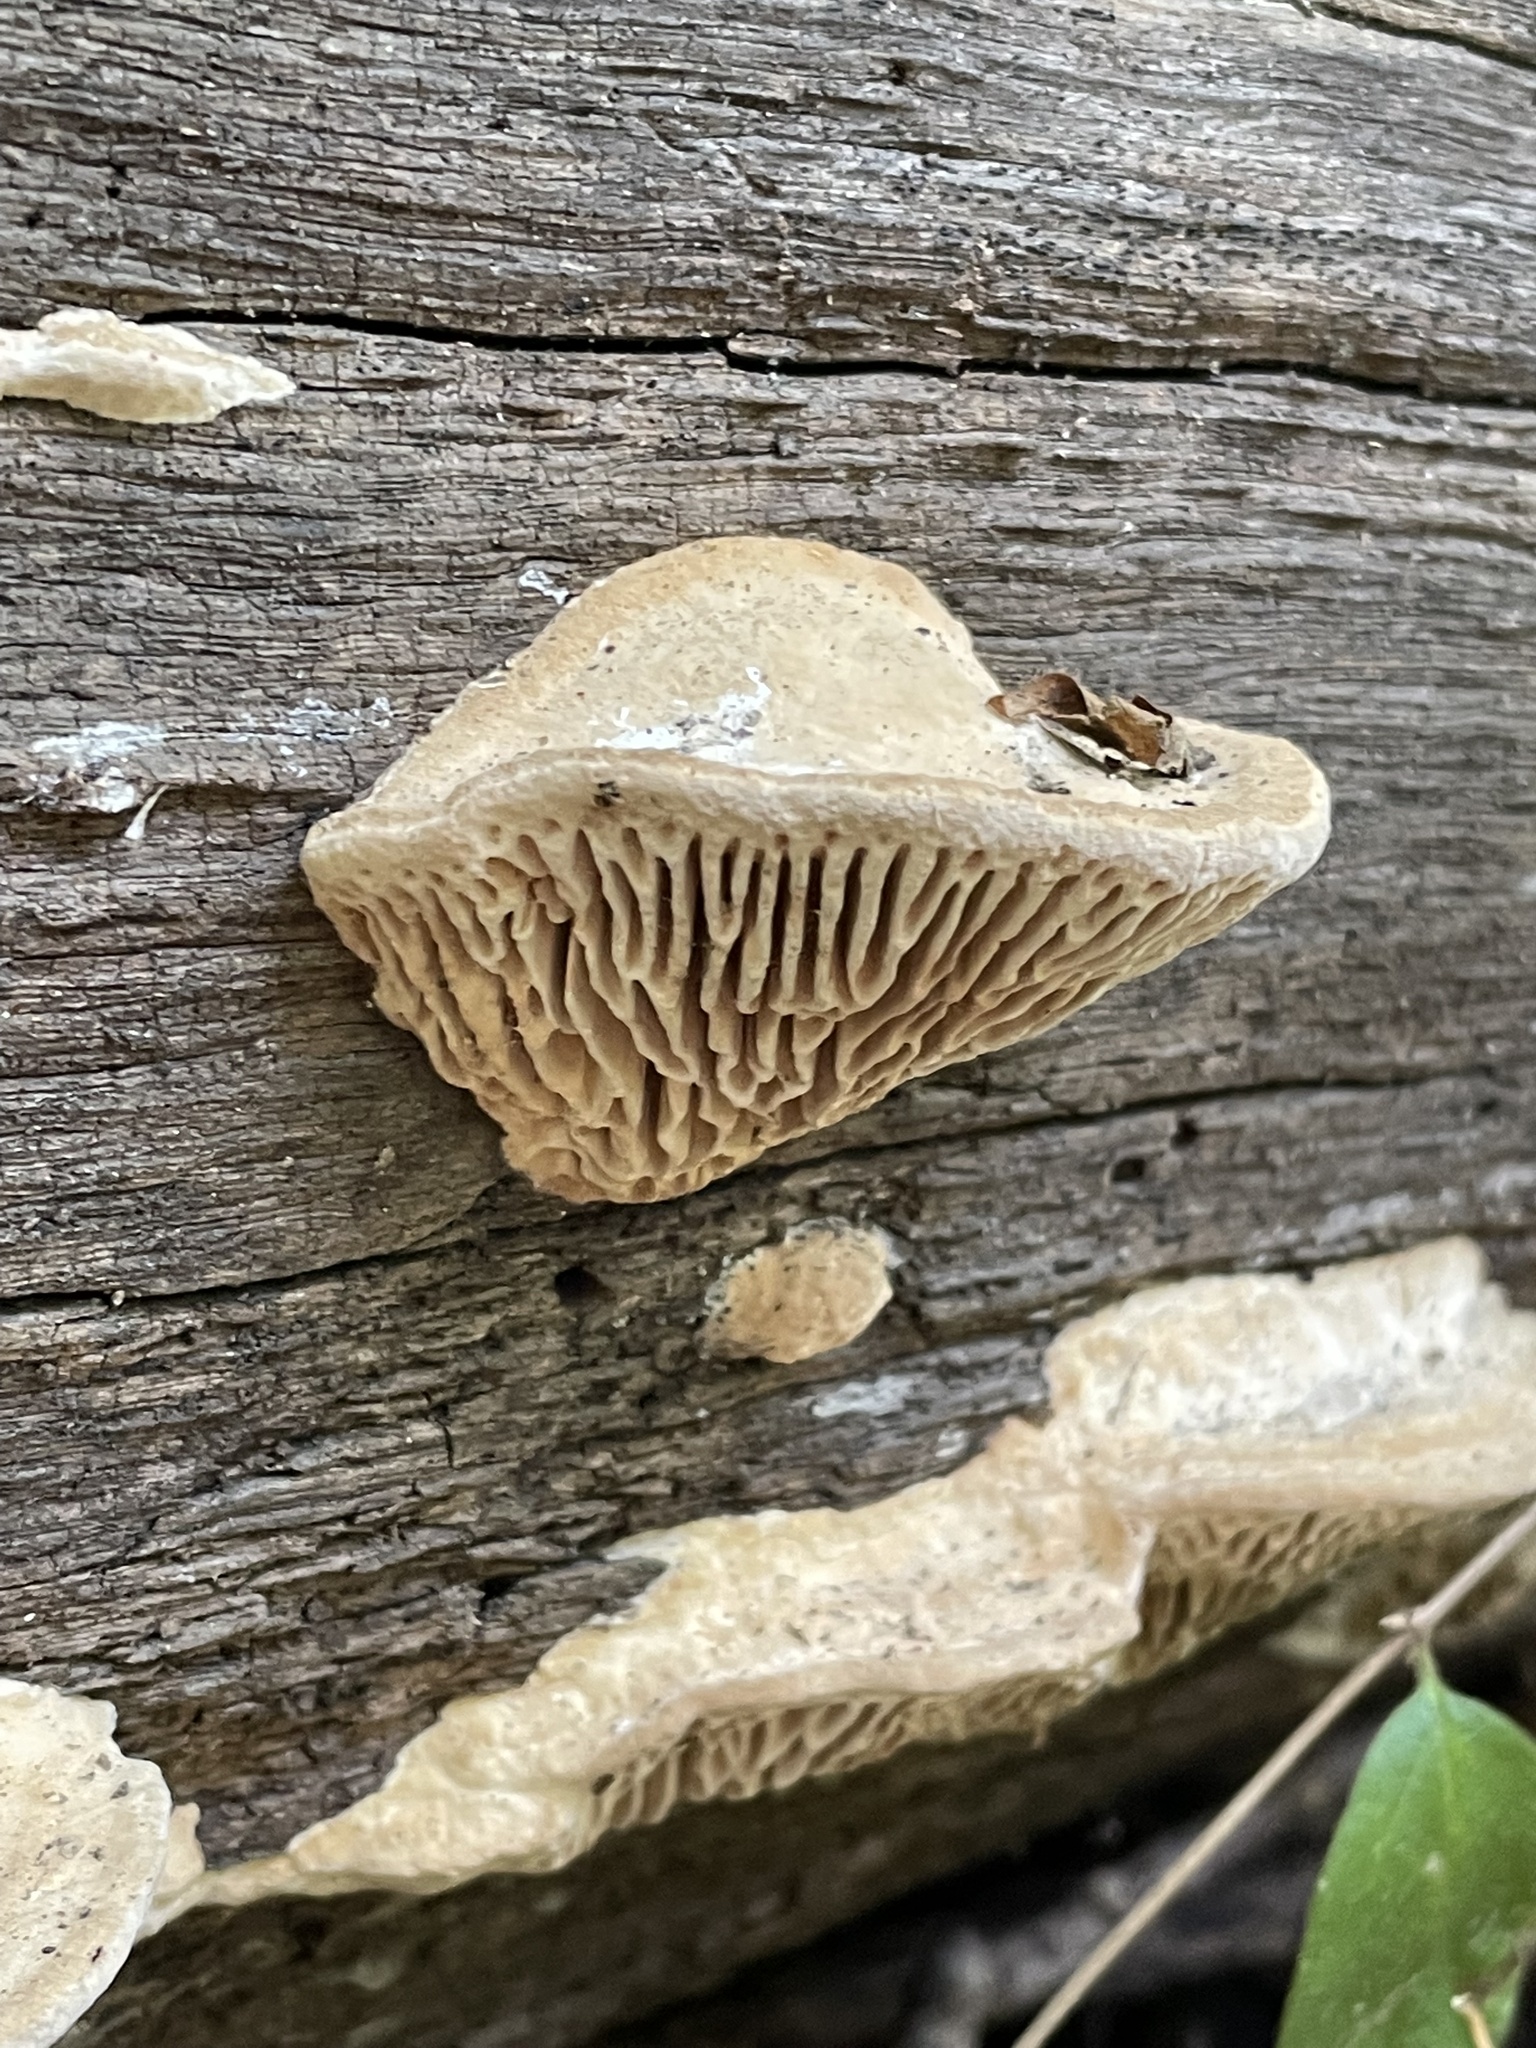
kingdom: Fungi
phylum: Basidiomycota
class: Agaricomycetes
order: Polyporales
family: Fomitopsidaceae
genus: Fomitopsis
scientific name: Fomitopsis
